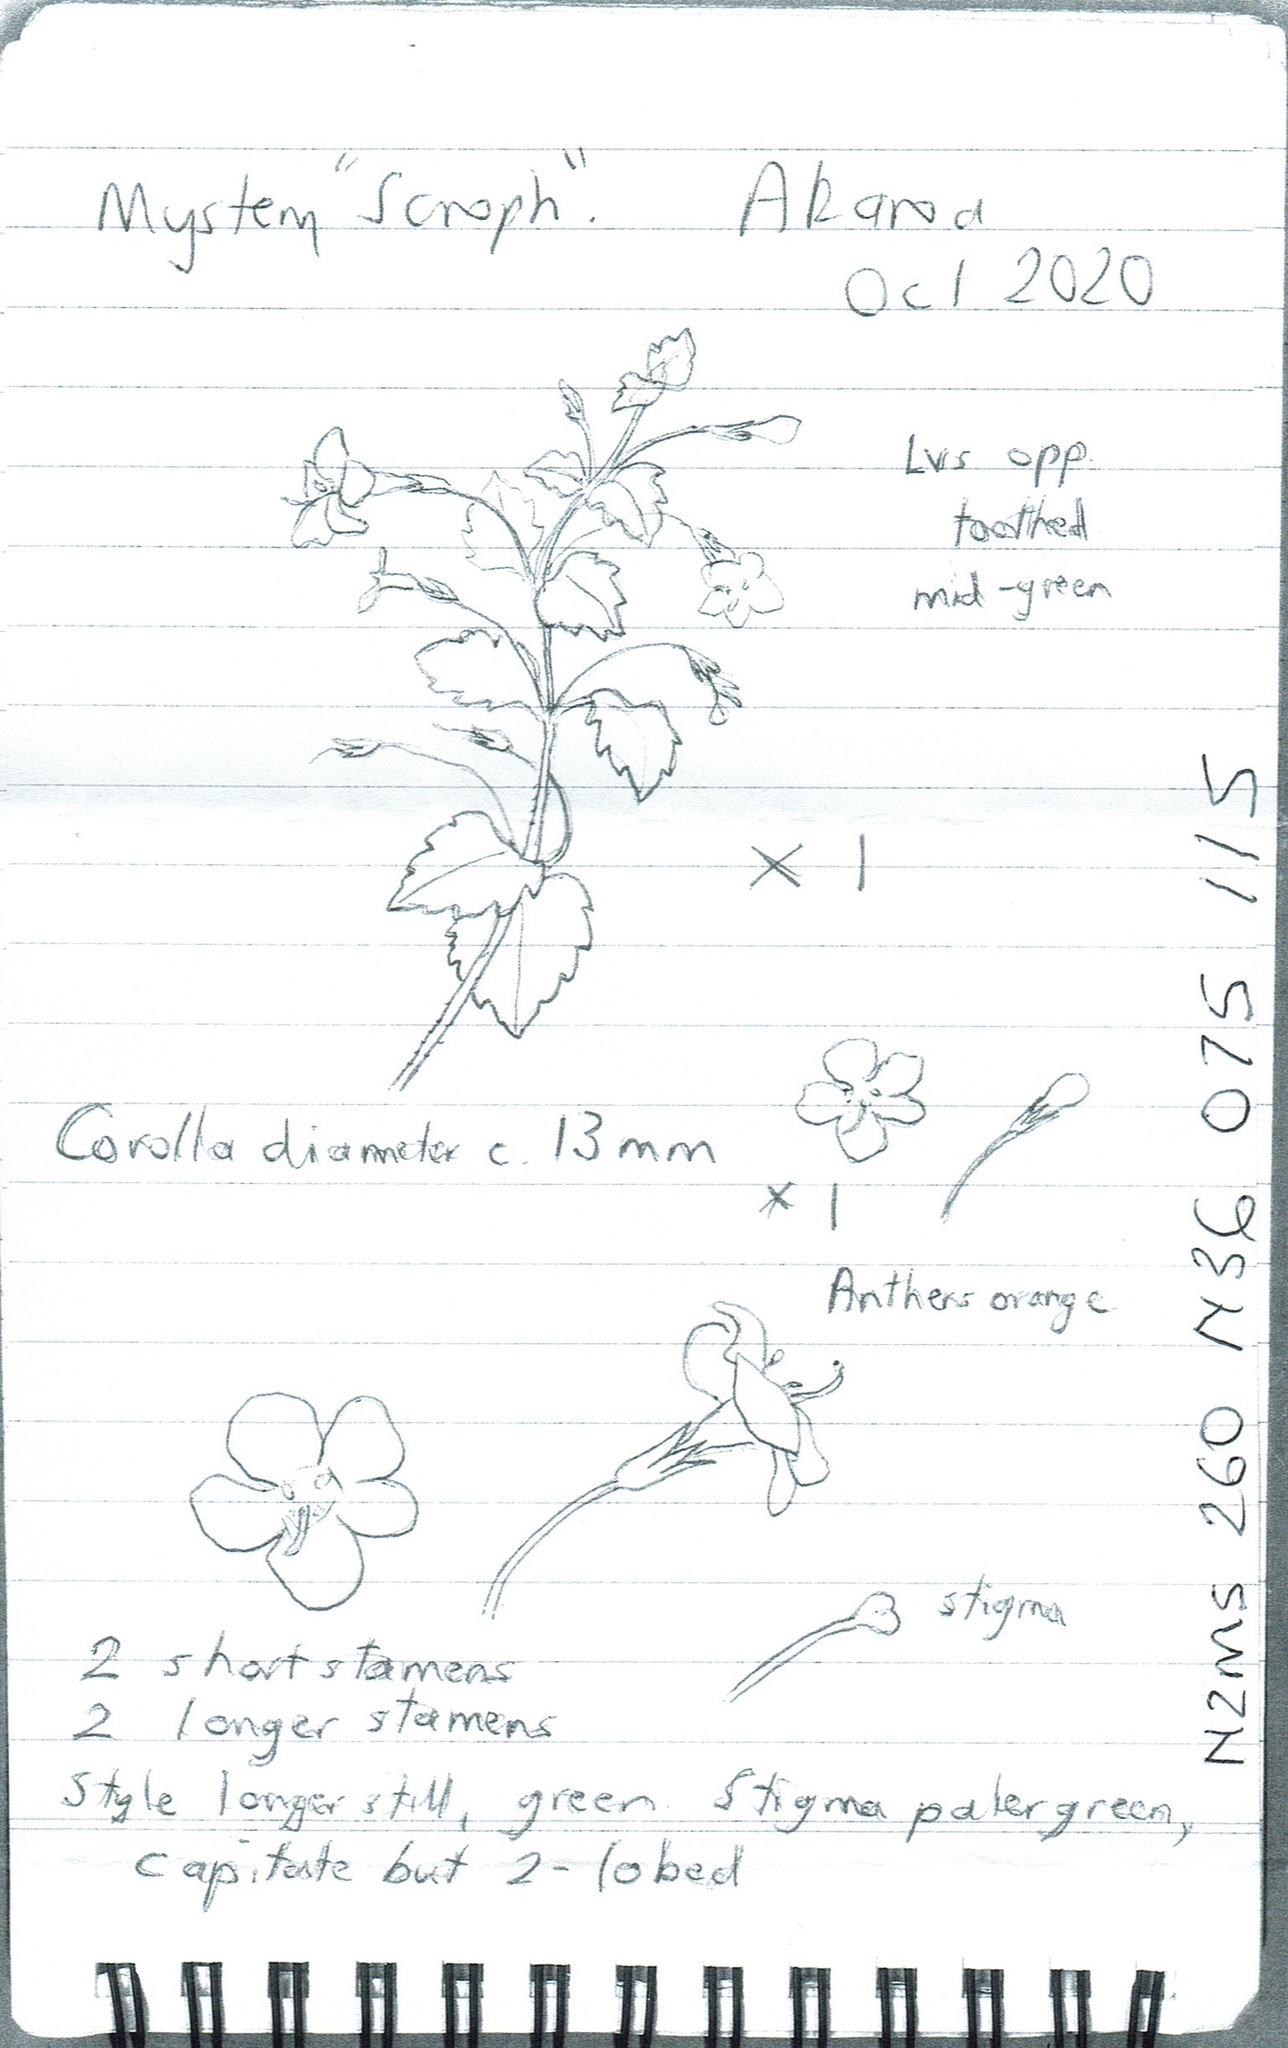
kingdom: Plantae
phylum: Tracheophyta
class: Magnoliopsida
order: Lamiales
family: Scrophulariaceae
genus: Chaenostoma
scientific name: Chaenostoma cordatum
